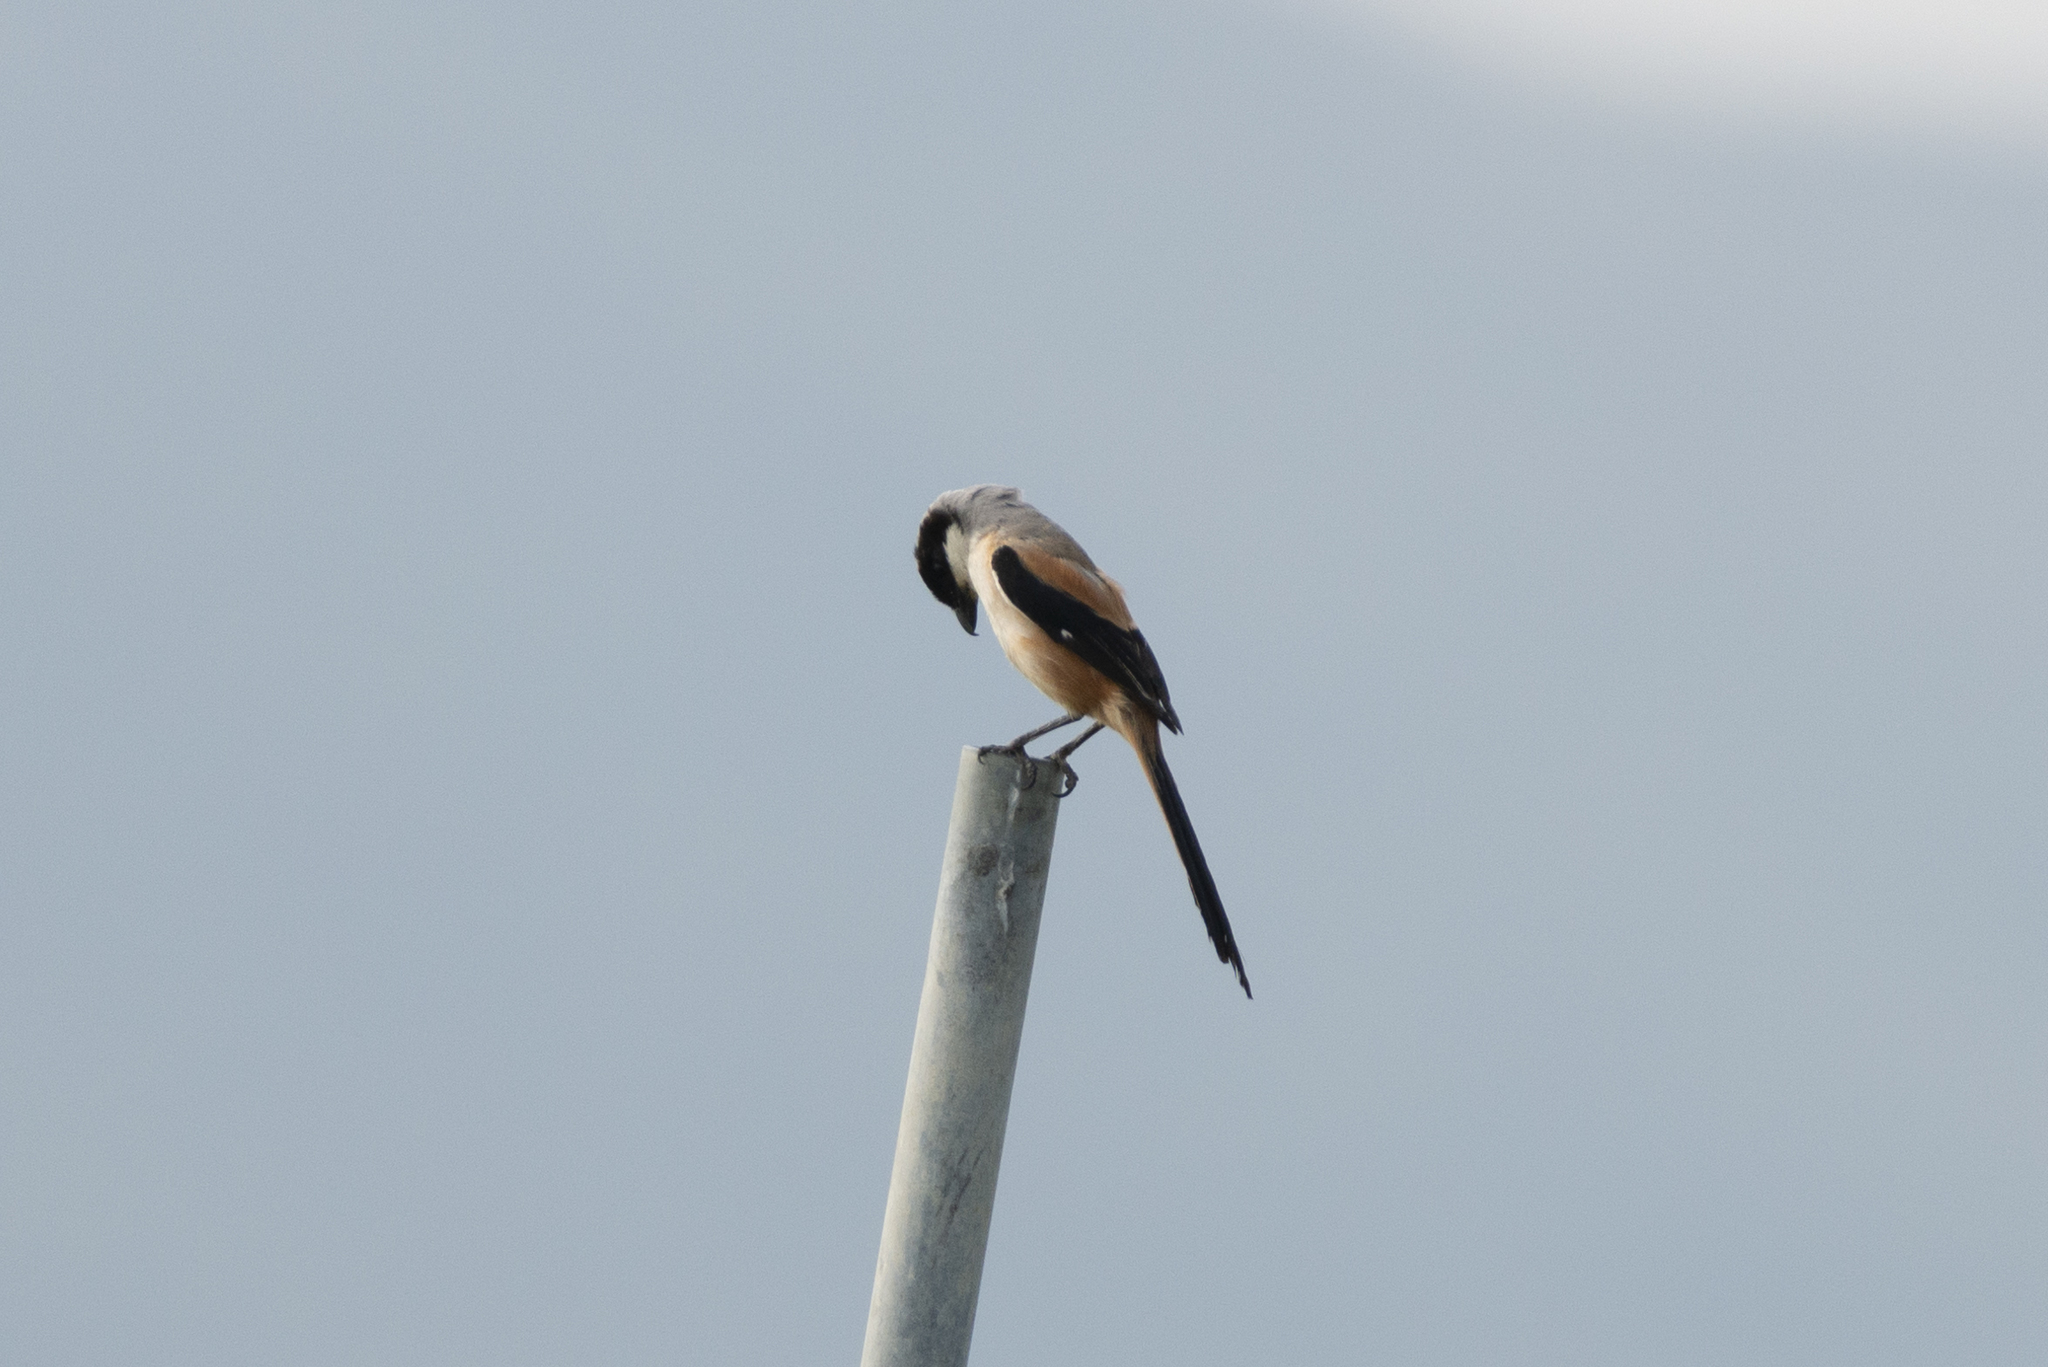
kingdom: Animalia
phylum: Chordata
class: Aves
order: Passeriformes
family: Laniidae
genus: Lanius
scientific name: Lanius schach
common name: Long-tailed shrike
